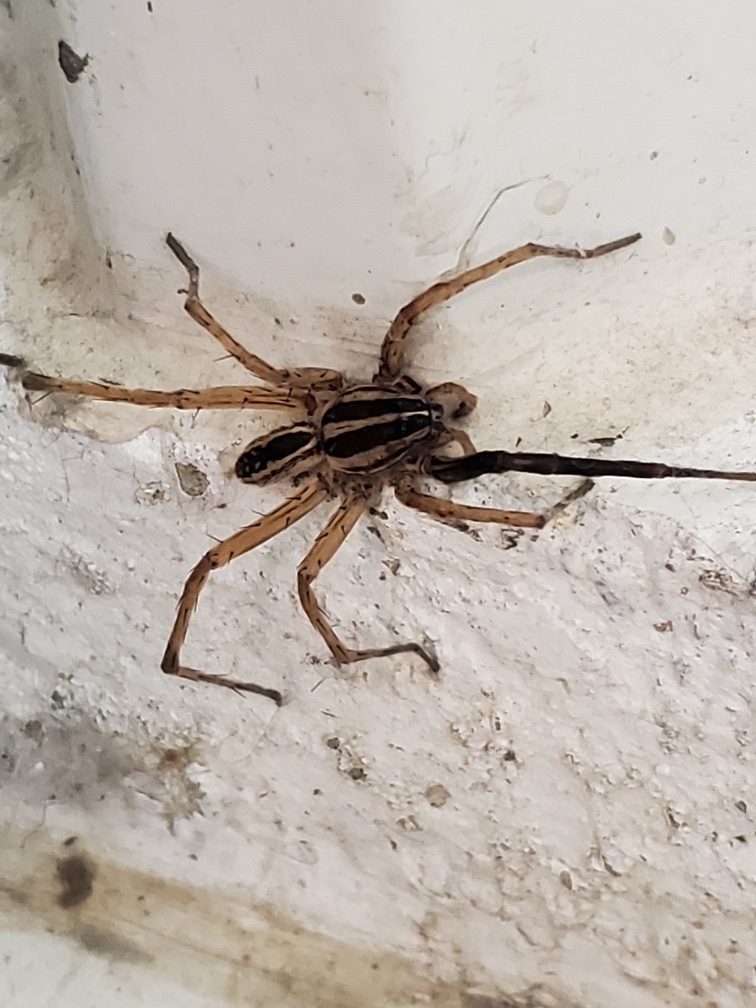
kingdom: Animalia
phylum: Arthropoda
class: Arachnida
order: Araneae
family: Lycosidae
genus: Rabidosa
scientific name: Rabidosa rabida
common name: Rabid wolf spider
